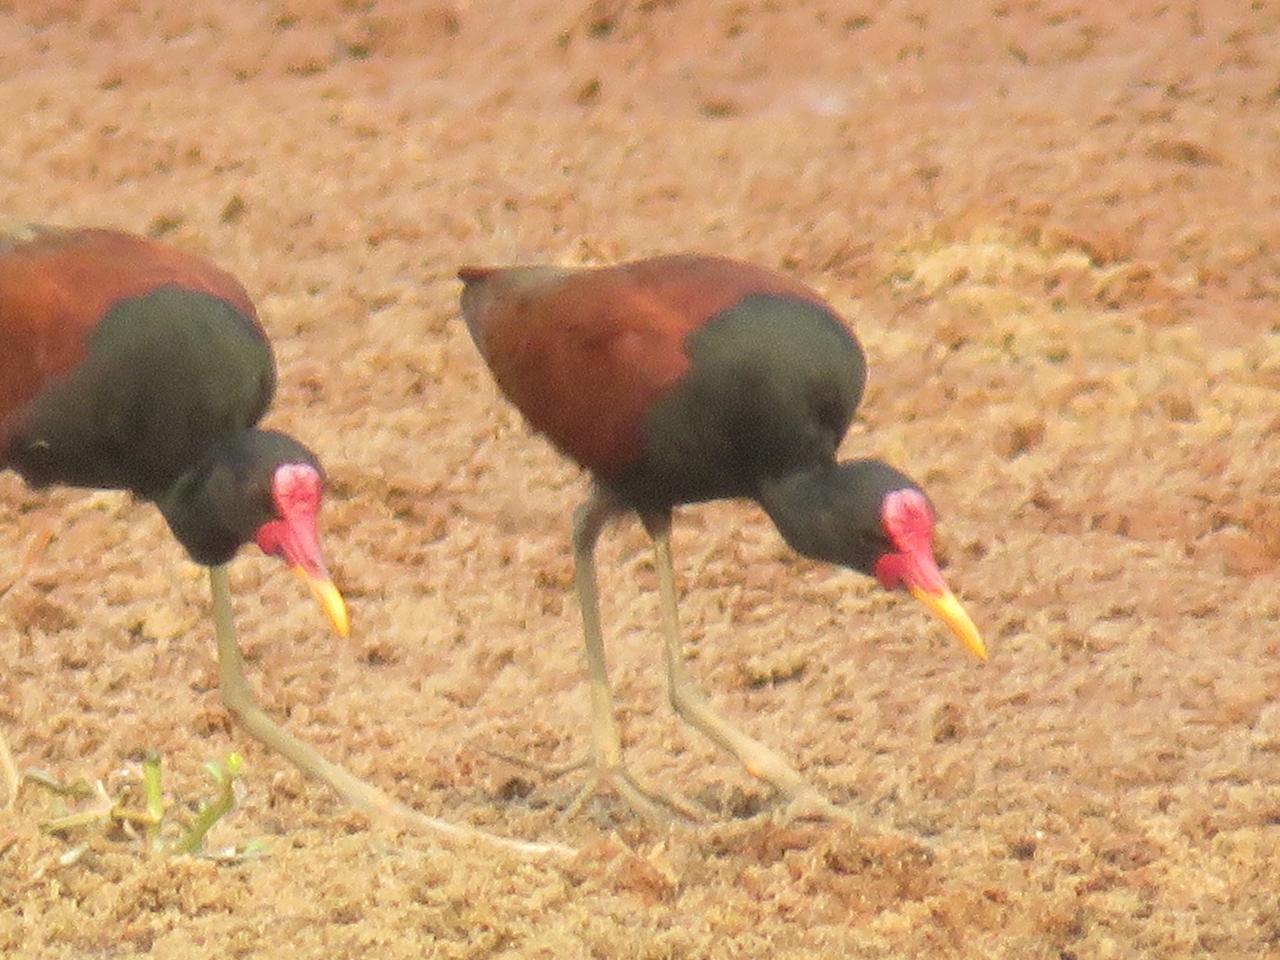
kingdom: Animalia
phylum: Chordata
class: Aves
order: Charadriiformes
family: Jacanidae
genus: Jacana
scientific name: Jacana jacana
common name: Wattled jacana
